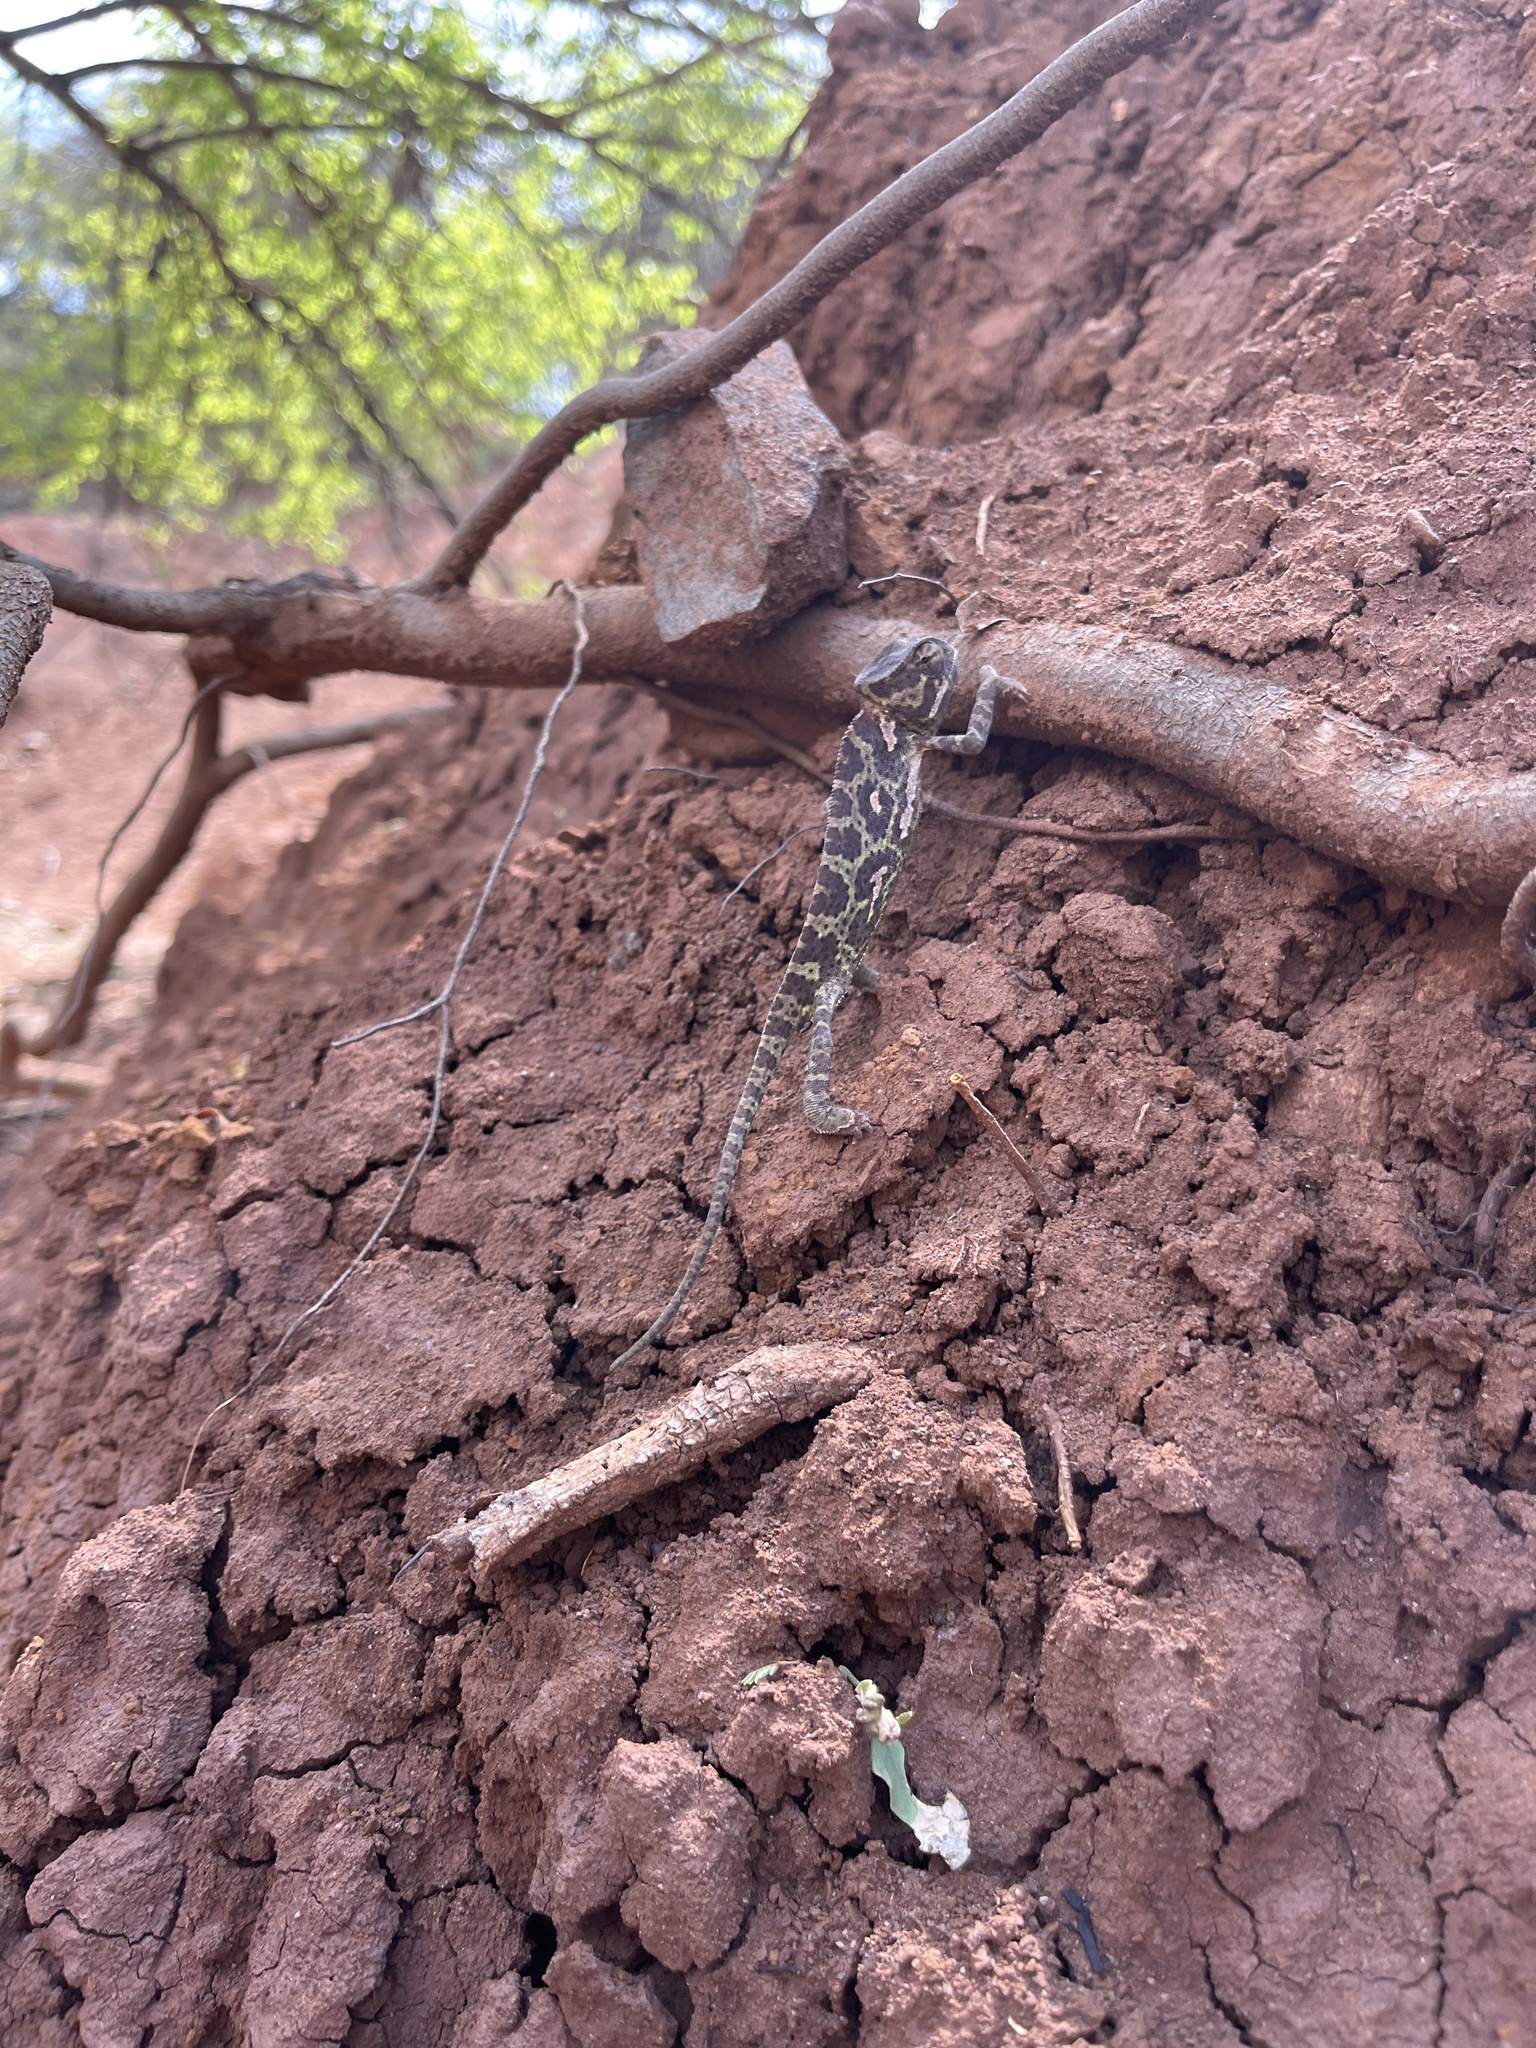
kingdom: Animalia
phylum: Chordata
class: Squamata
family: Chamaeleonidae
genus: Chamaeleo
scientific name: Chamaeleo gracilis
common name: Graceful chameleon
